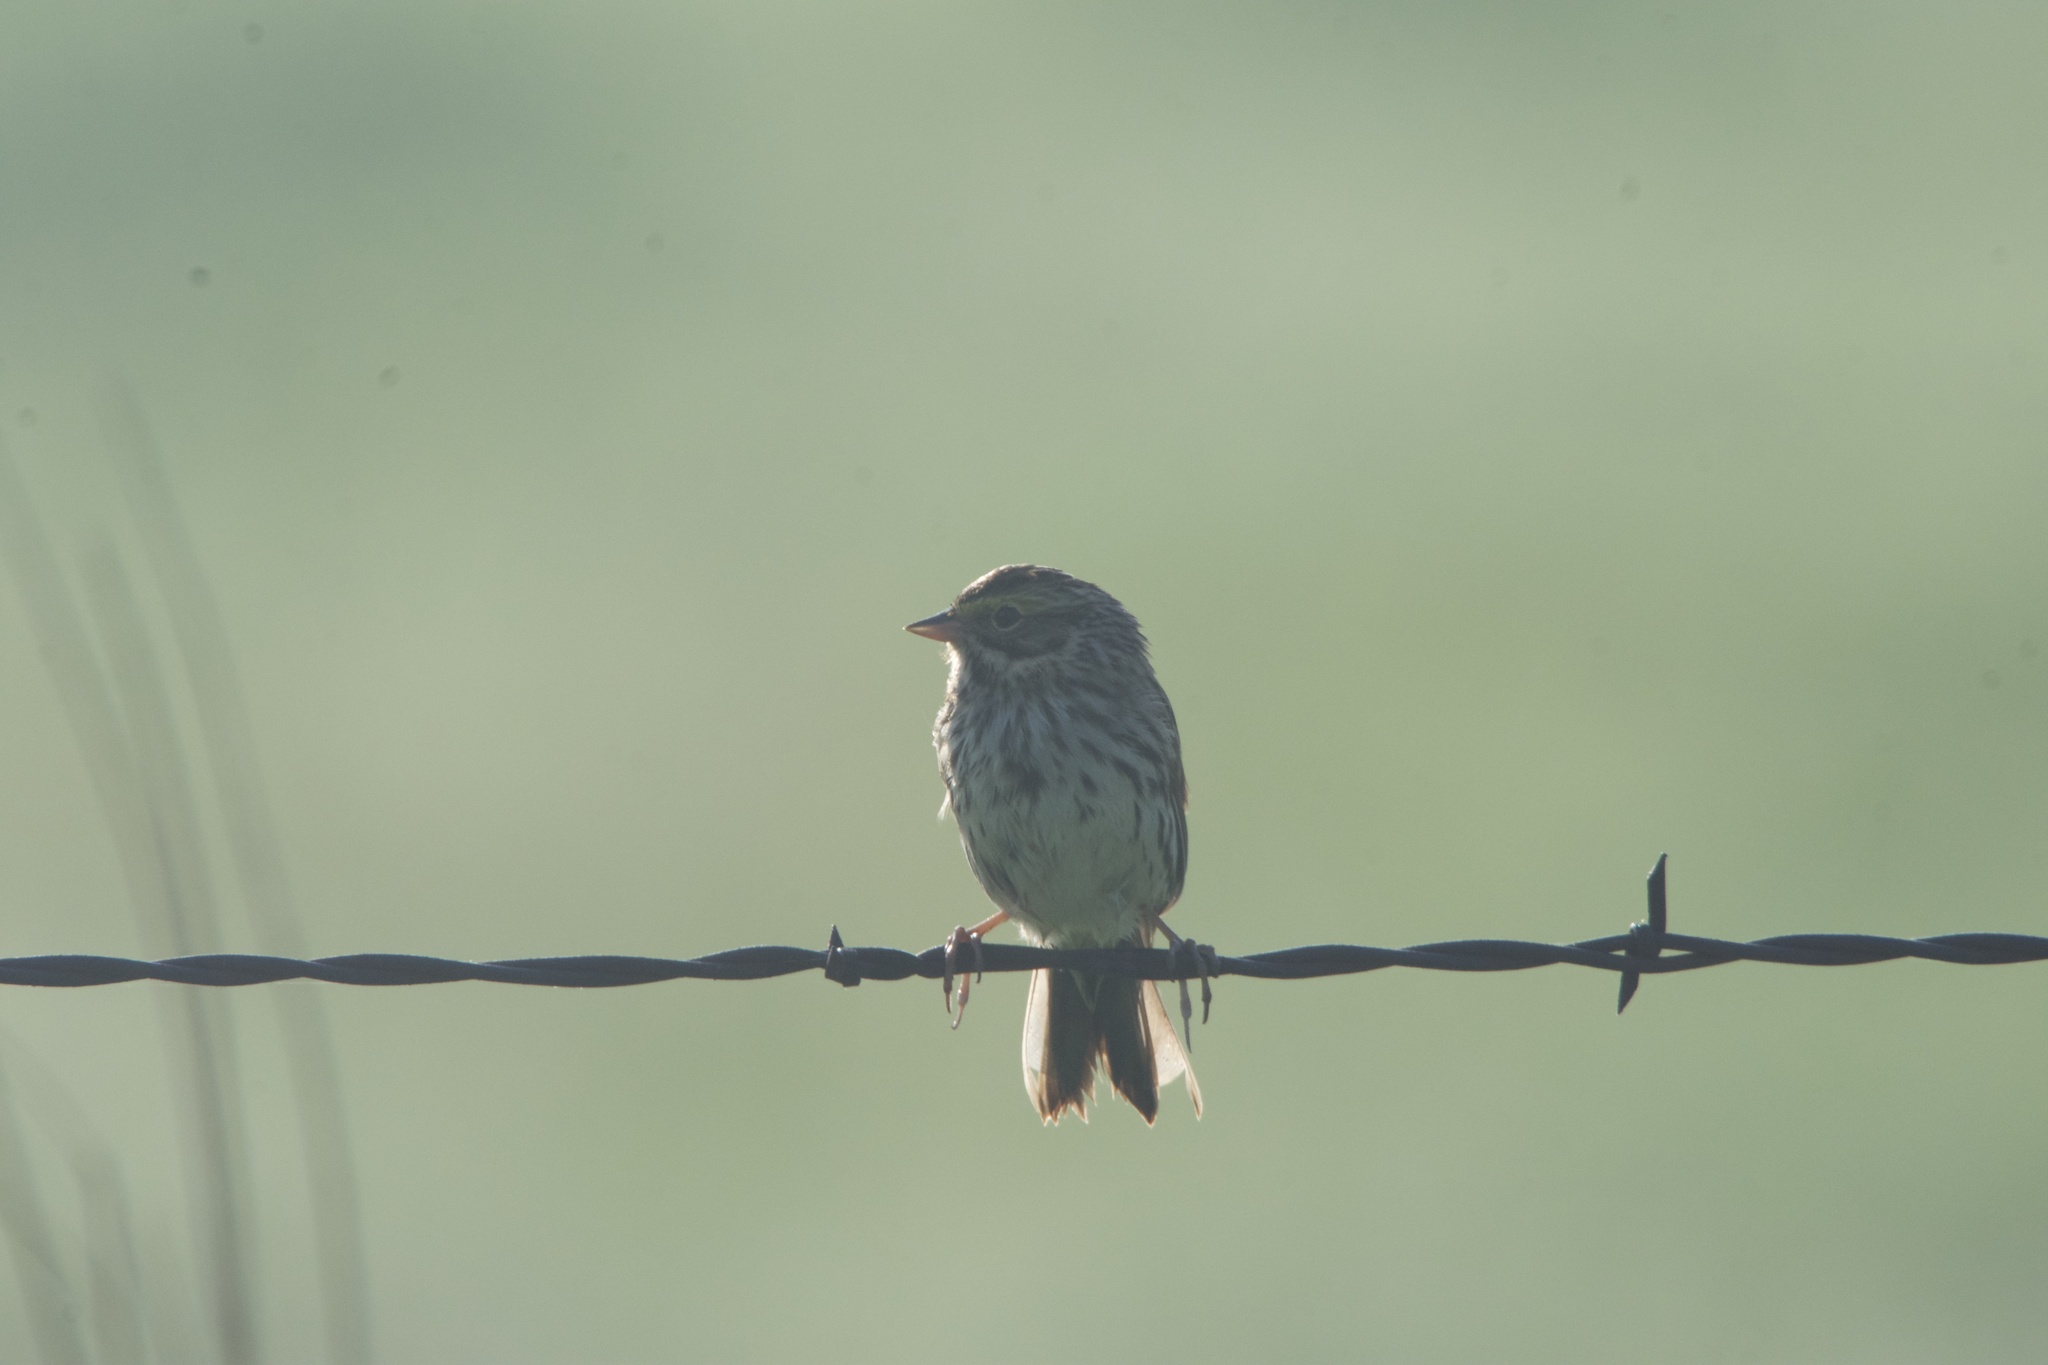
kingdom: Animalia
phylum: Chordata
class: Aves
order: Passeriformes
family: Passerellidae
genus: Passerculus
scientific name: Passerculus sandwichensis
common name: Savannah sparrow
